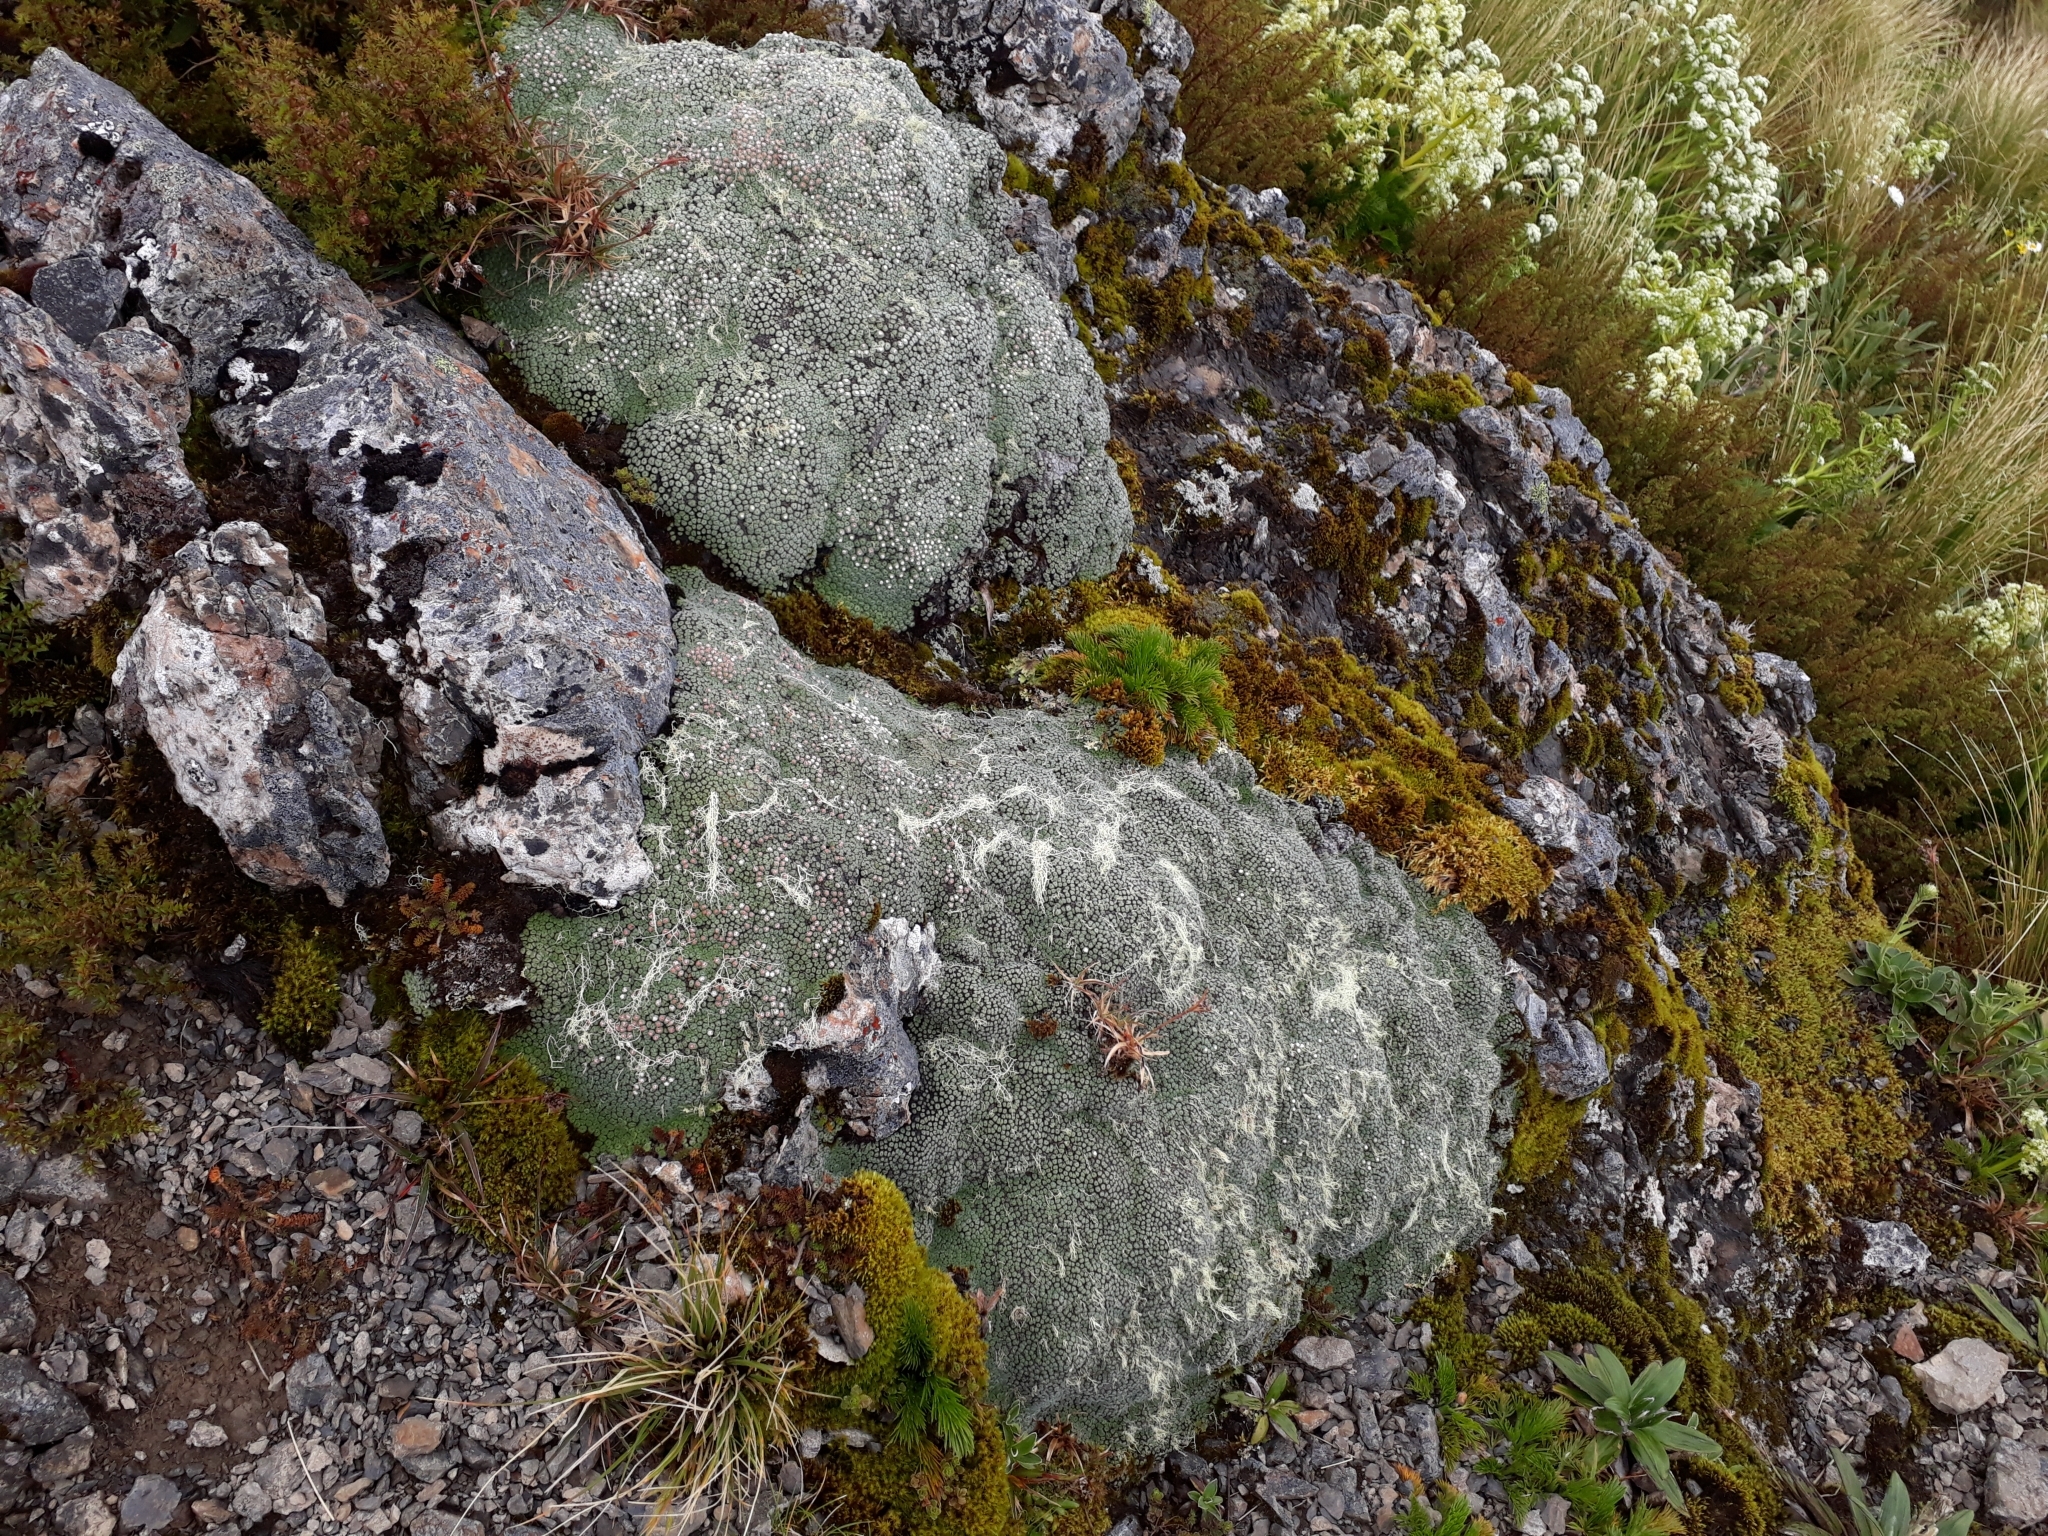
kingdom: Plantae
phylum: Tracheophyta
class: Magnoliopsida
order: Asterales
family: Asteraceae
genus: Raoulia
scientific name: Raoulia rubra
